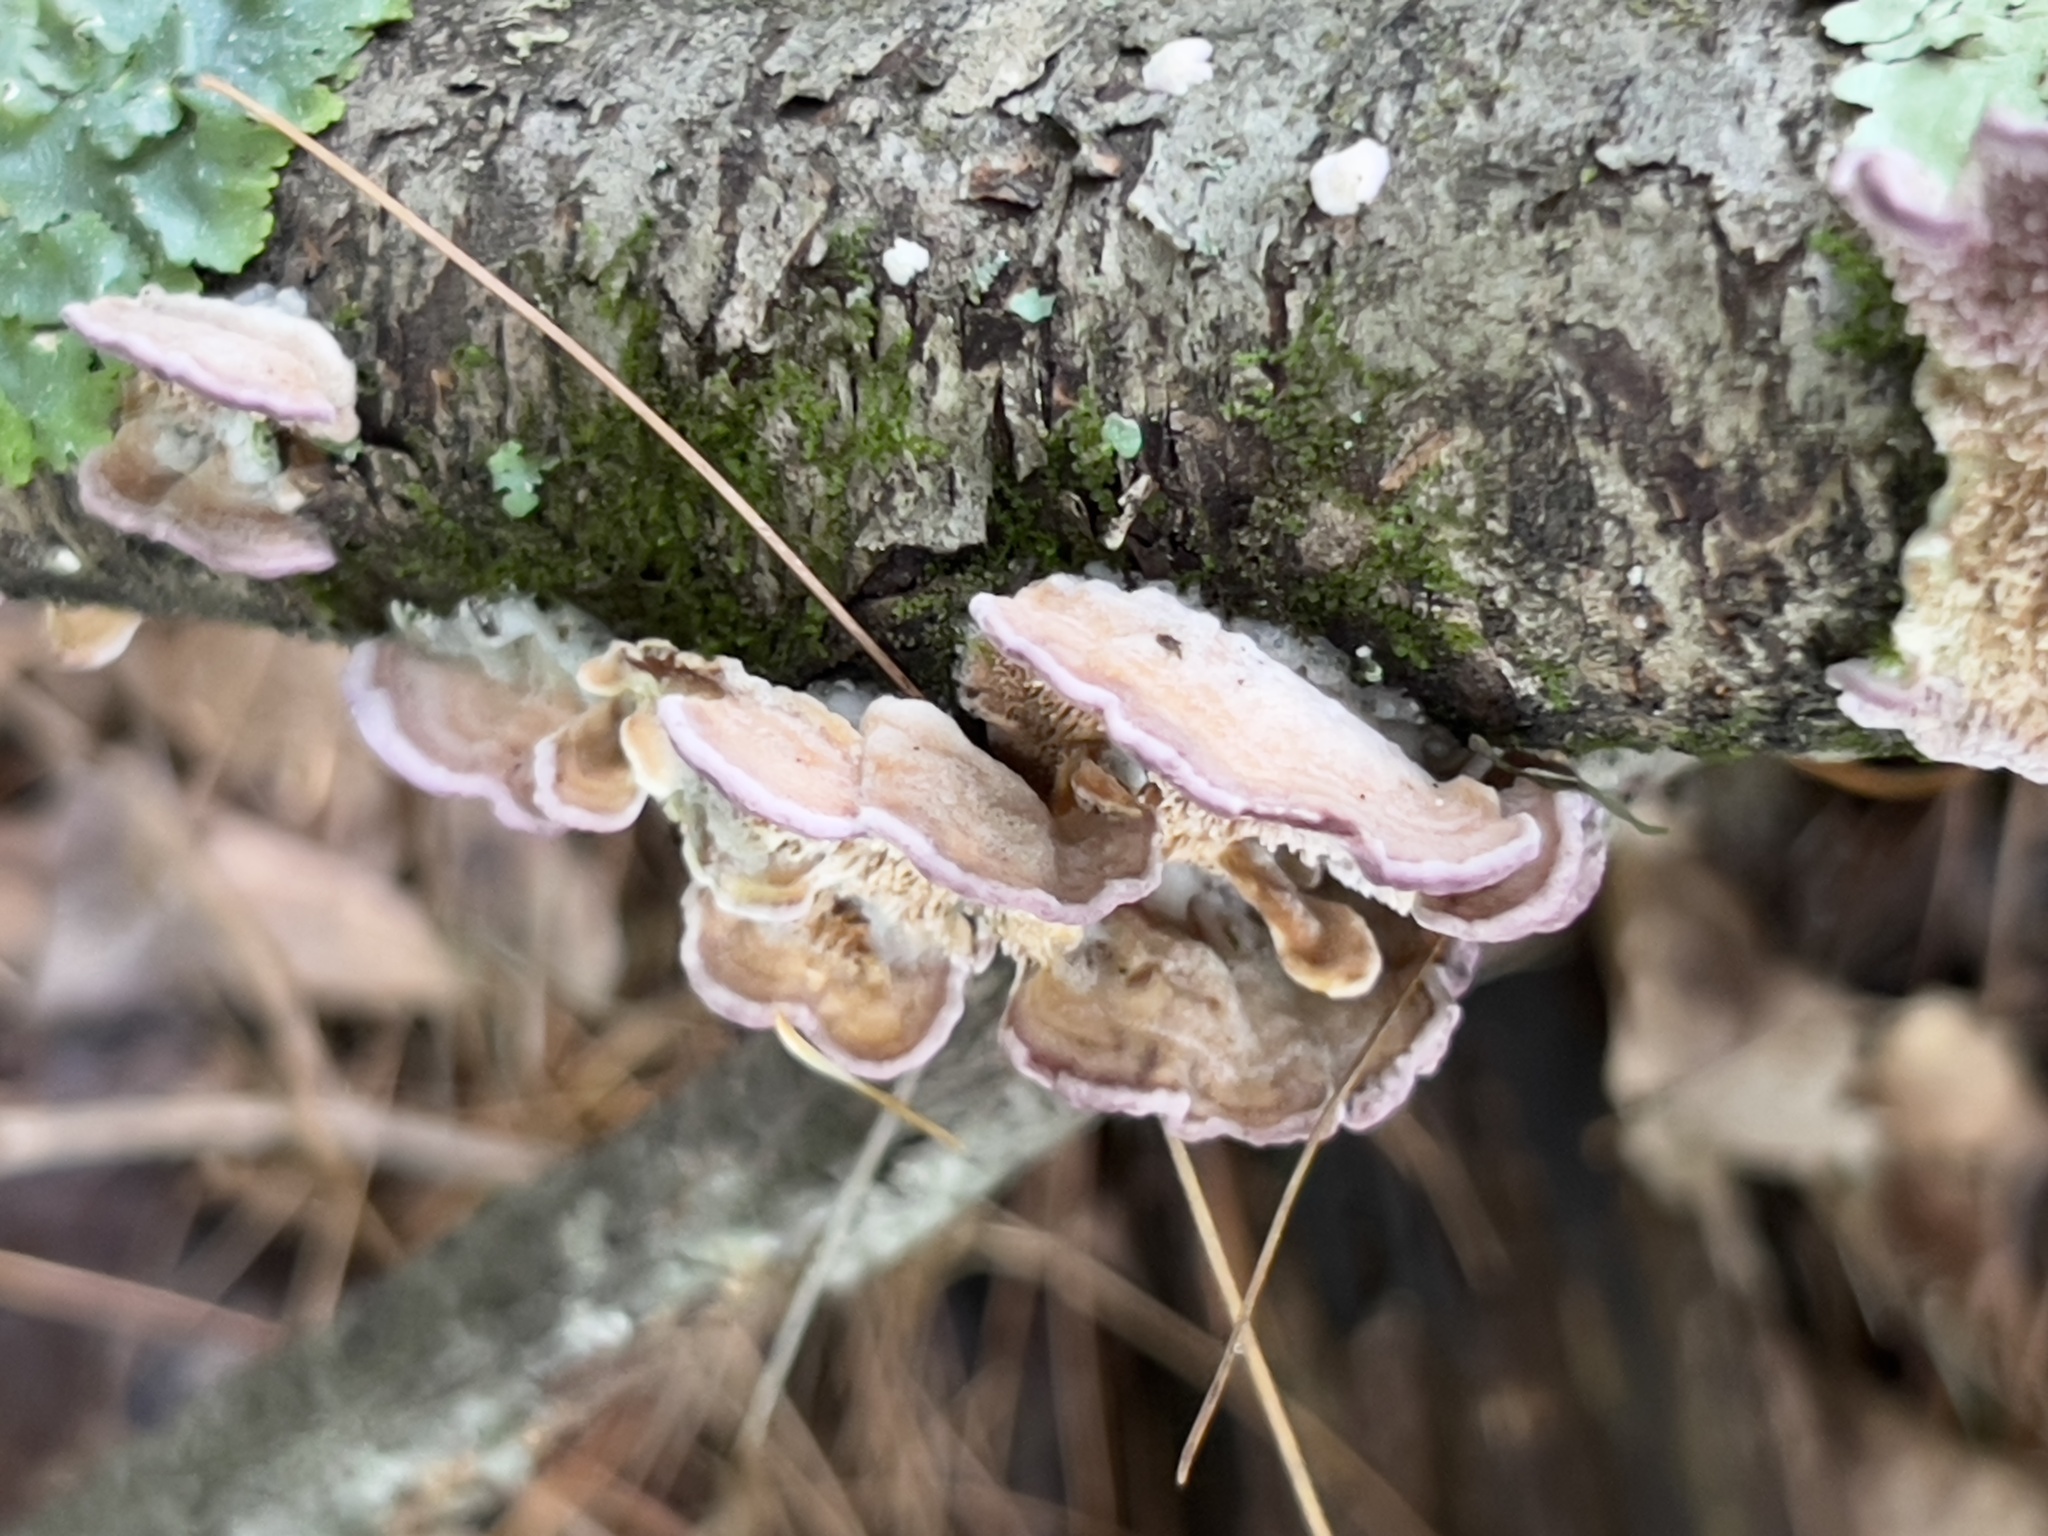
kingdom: Fungi
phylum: Basidiomycota
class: Agaricomycetes
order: Hymenochaetales
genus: Trichaptum
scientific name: Trichaptum biforme
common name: Violet-toothed polypore
